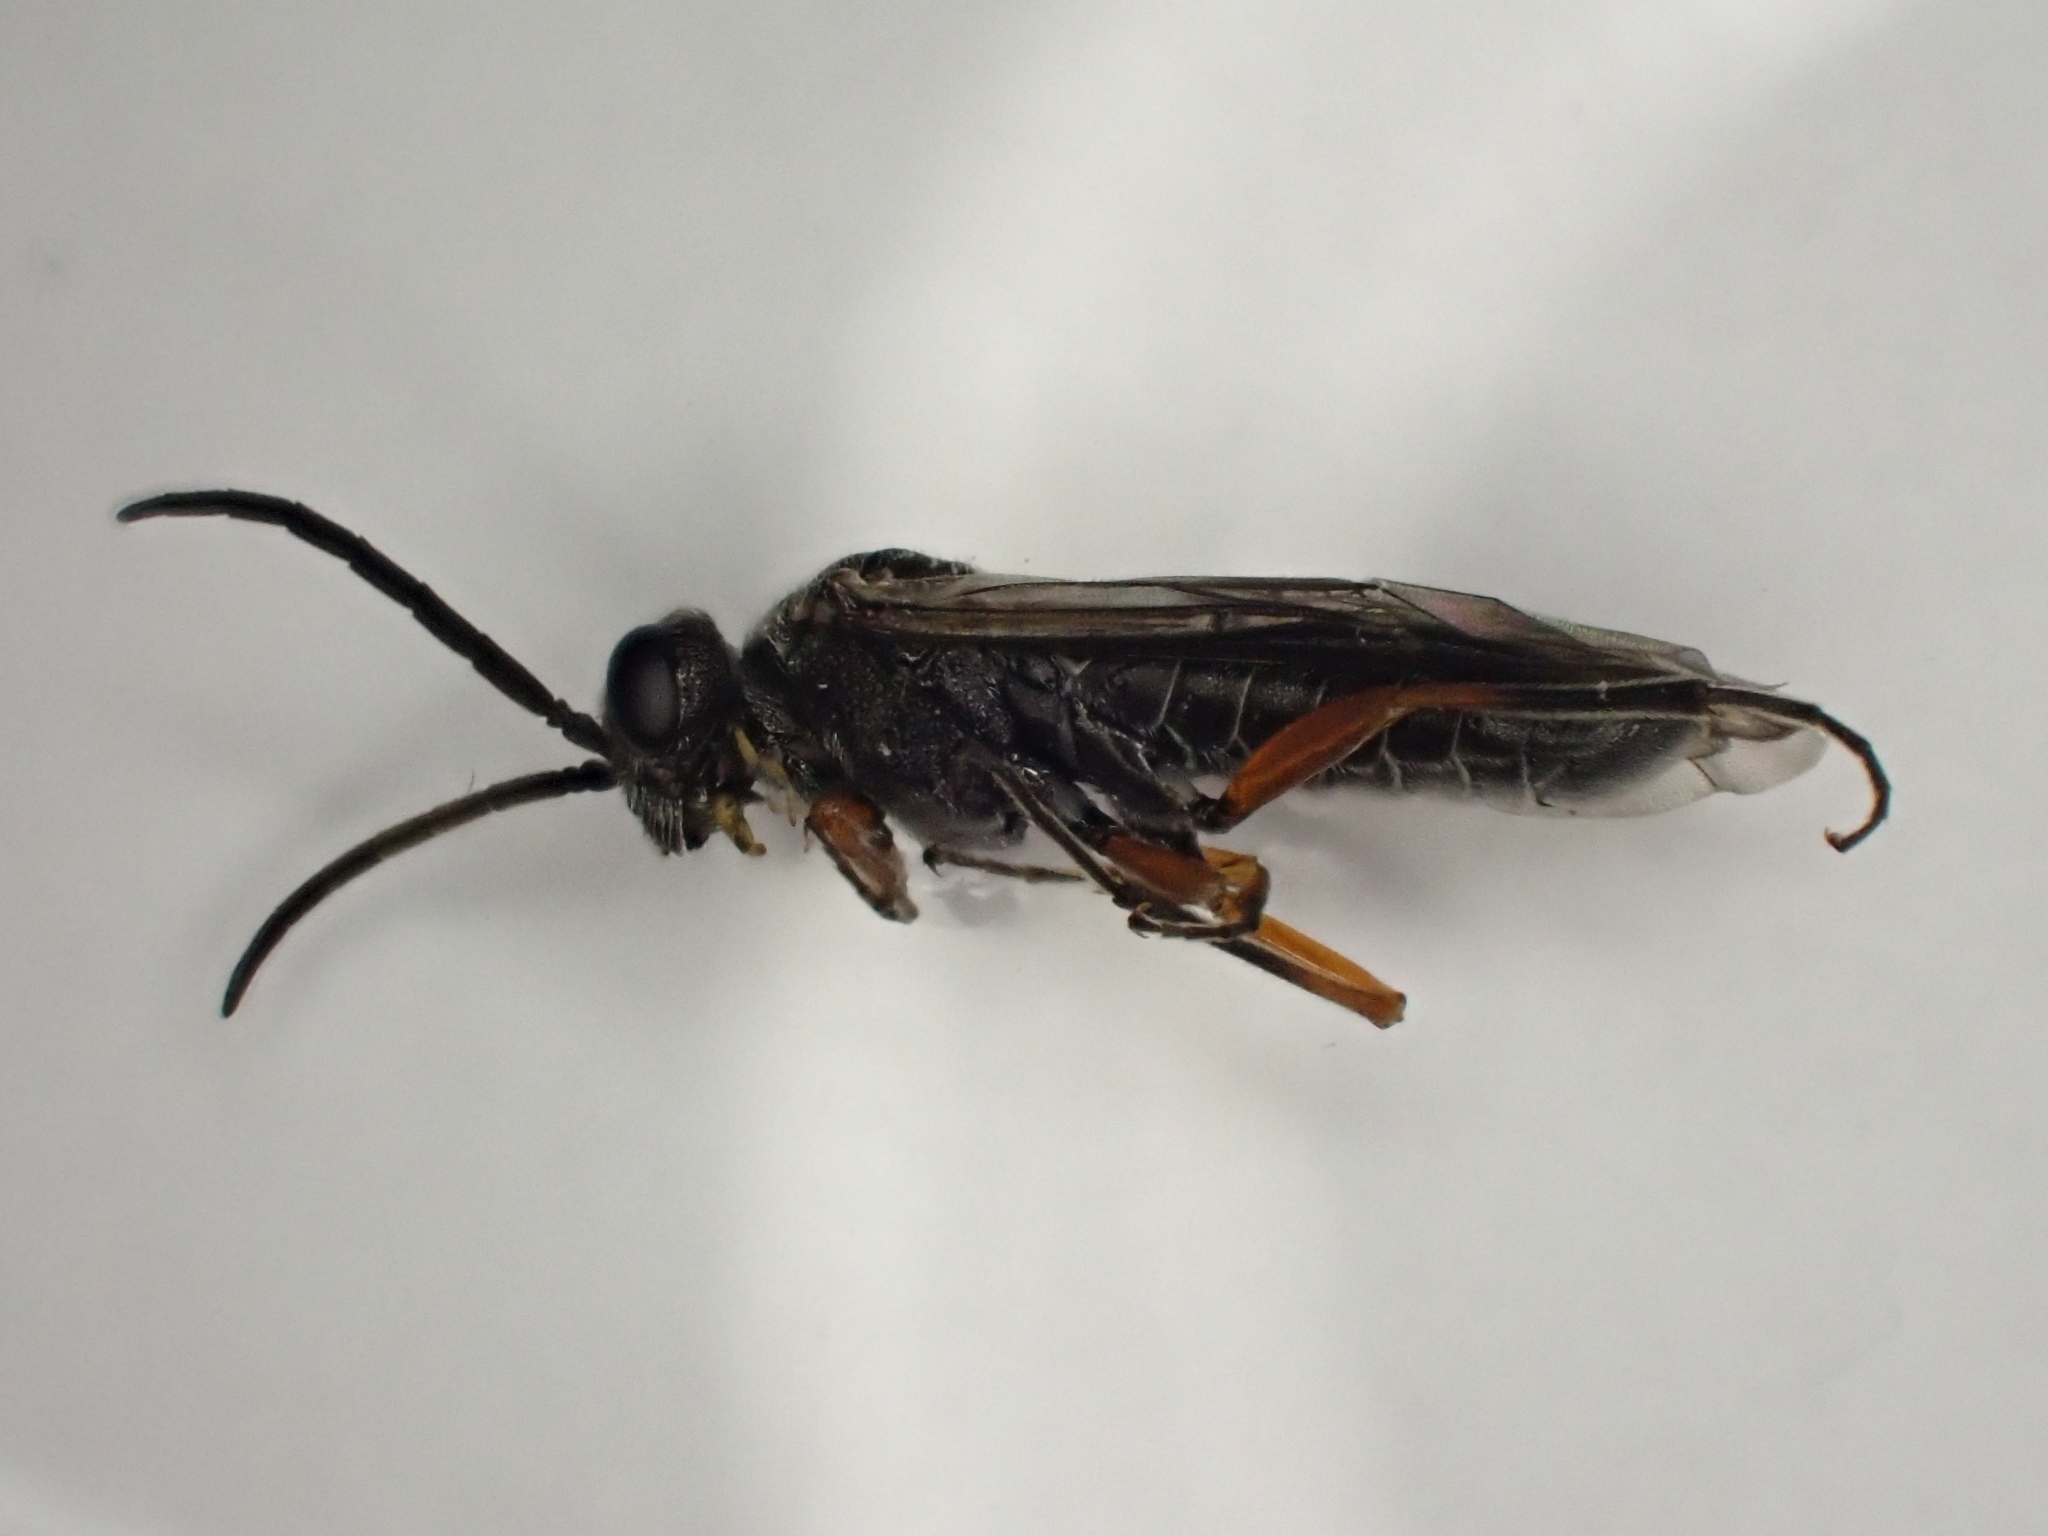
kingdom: Animalia
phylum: Arthropoda
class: Insecta
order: Hymenoptera
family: Tenthredinidae
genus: Dolerus
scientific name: Dolerus vestigialis
